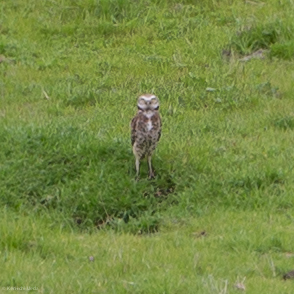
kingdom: Animalia
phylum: Chordata
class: Aves
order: Strigiformes
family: Strigidae
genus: Athene
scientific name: Athene cunicularia
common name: Burrowing owl
